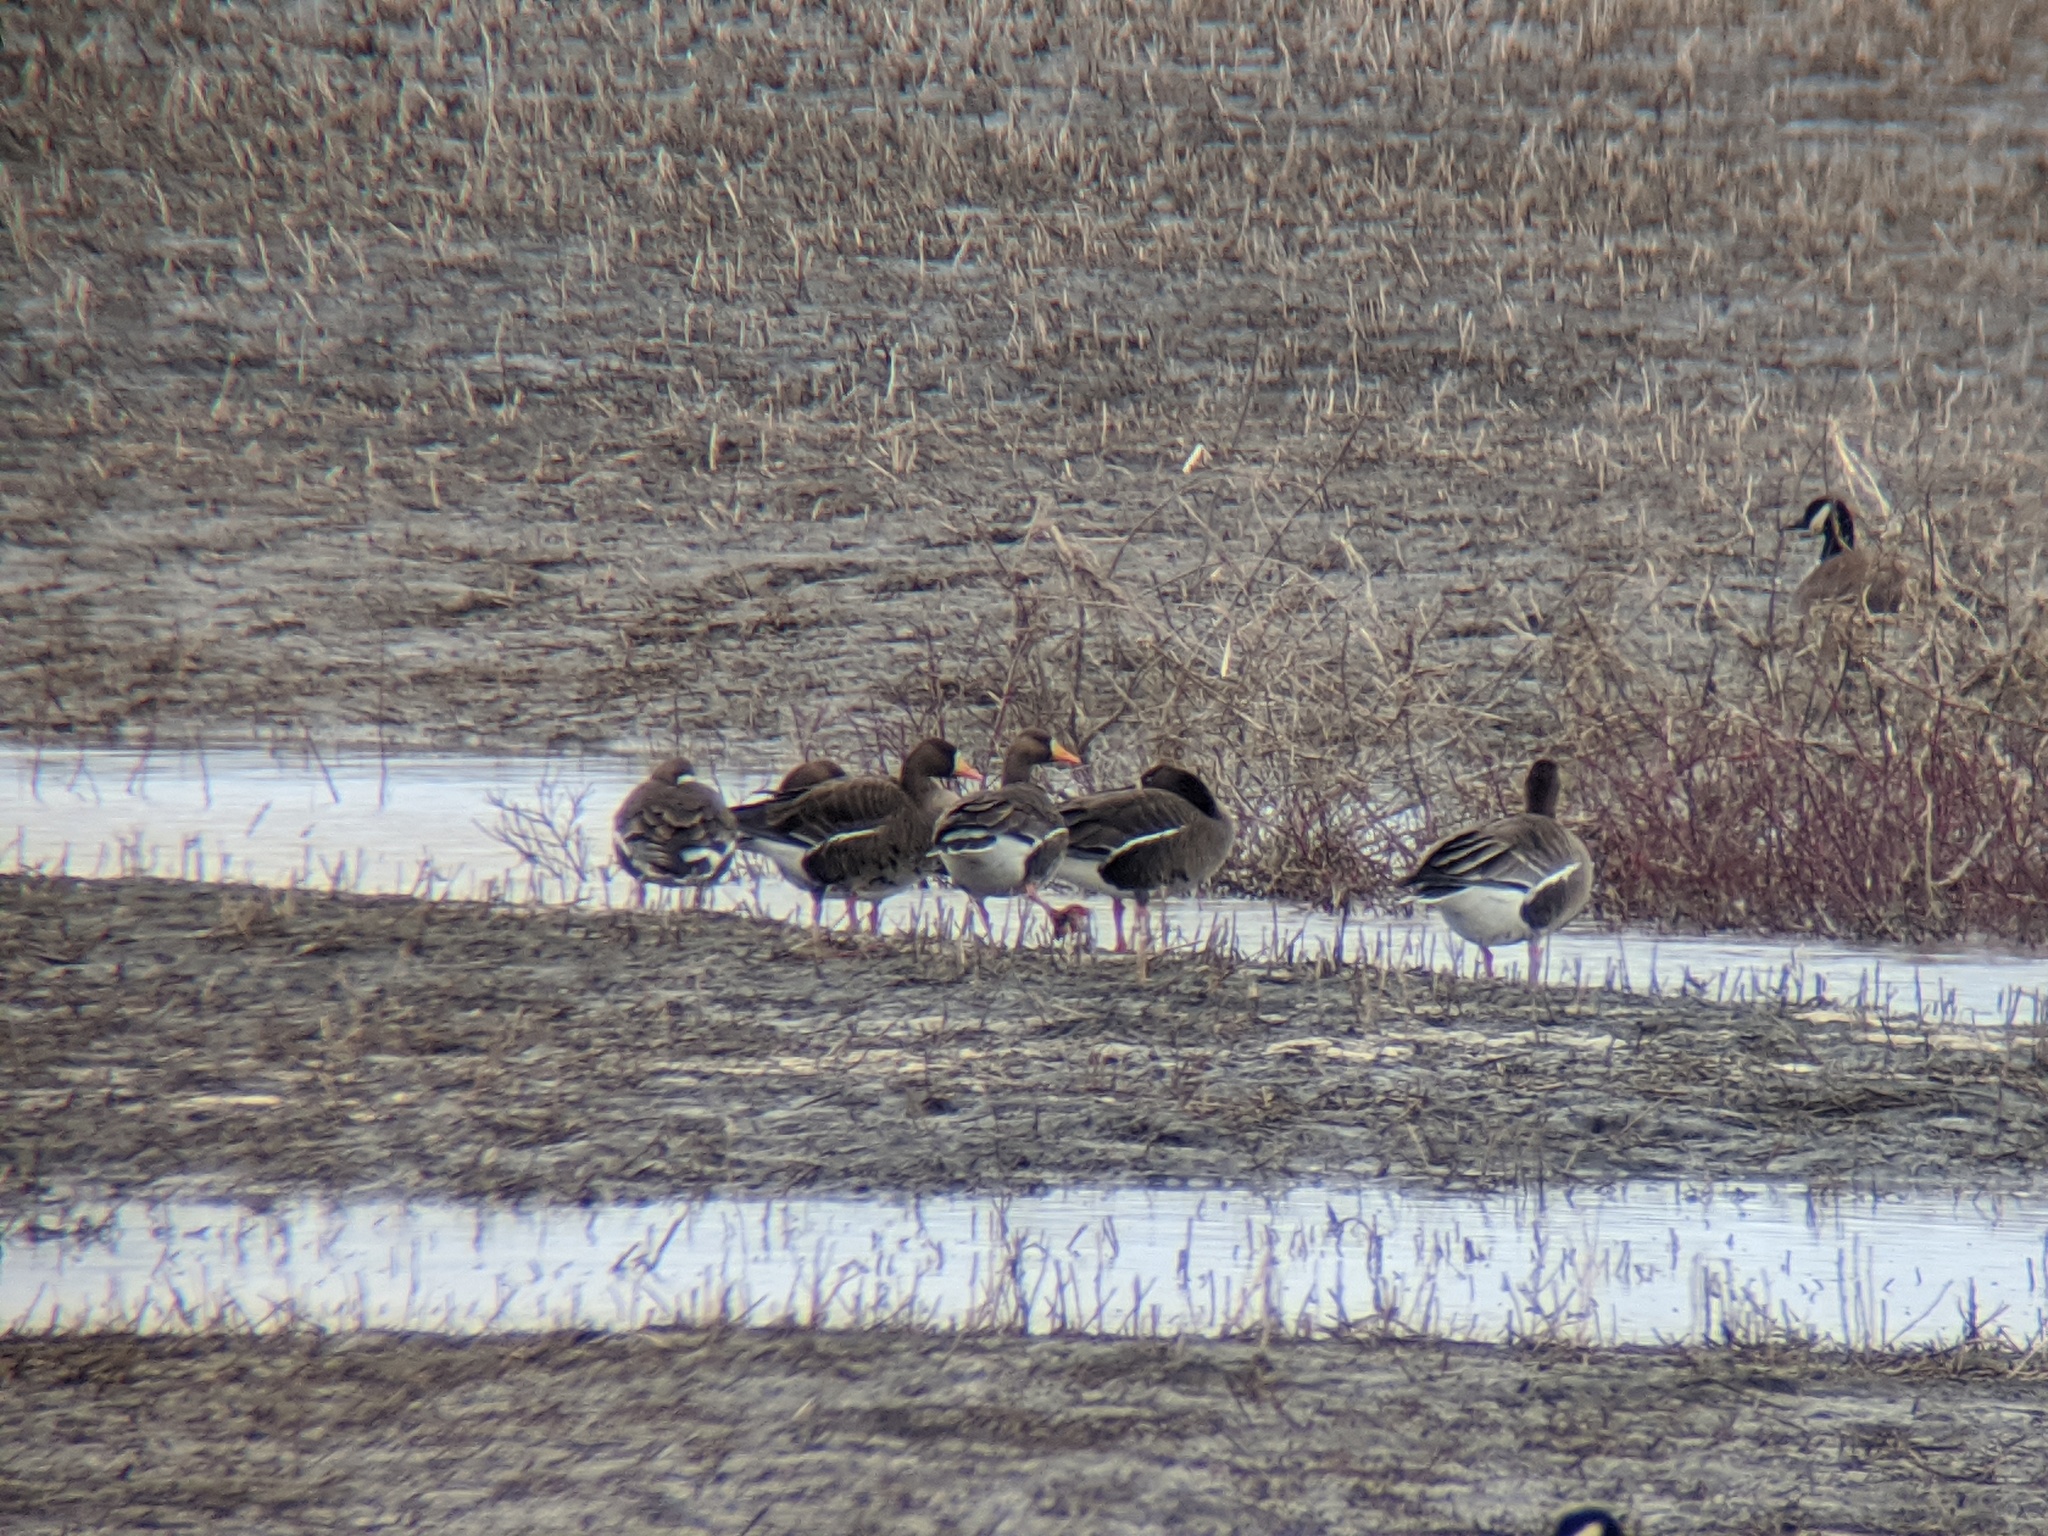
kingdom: Animalia
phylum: Chordata
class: Aves
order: Anseriformes
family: Anatidae
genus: Anser
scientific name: Anser albifrons
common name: Greater white-fronted goose
